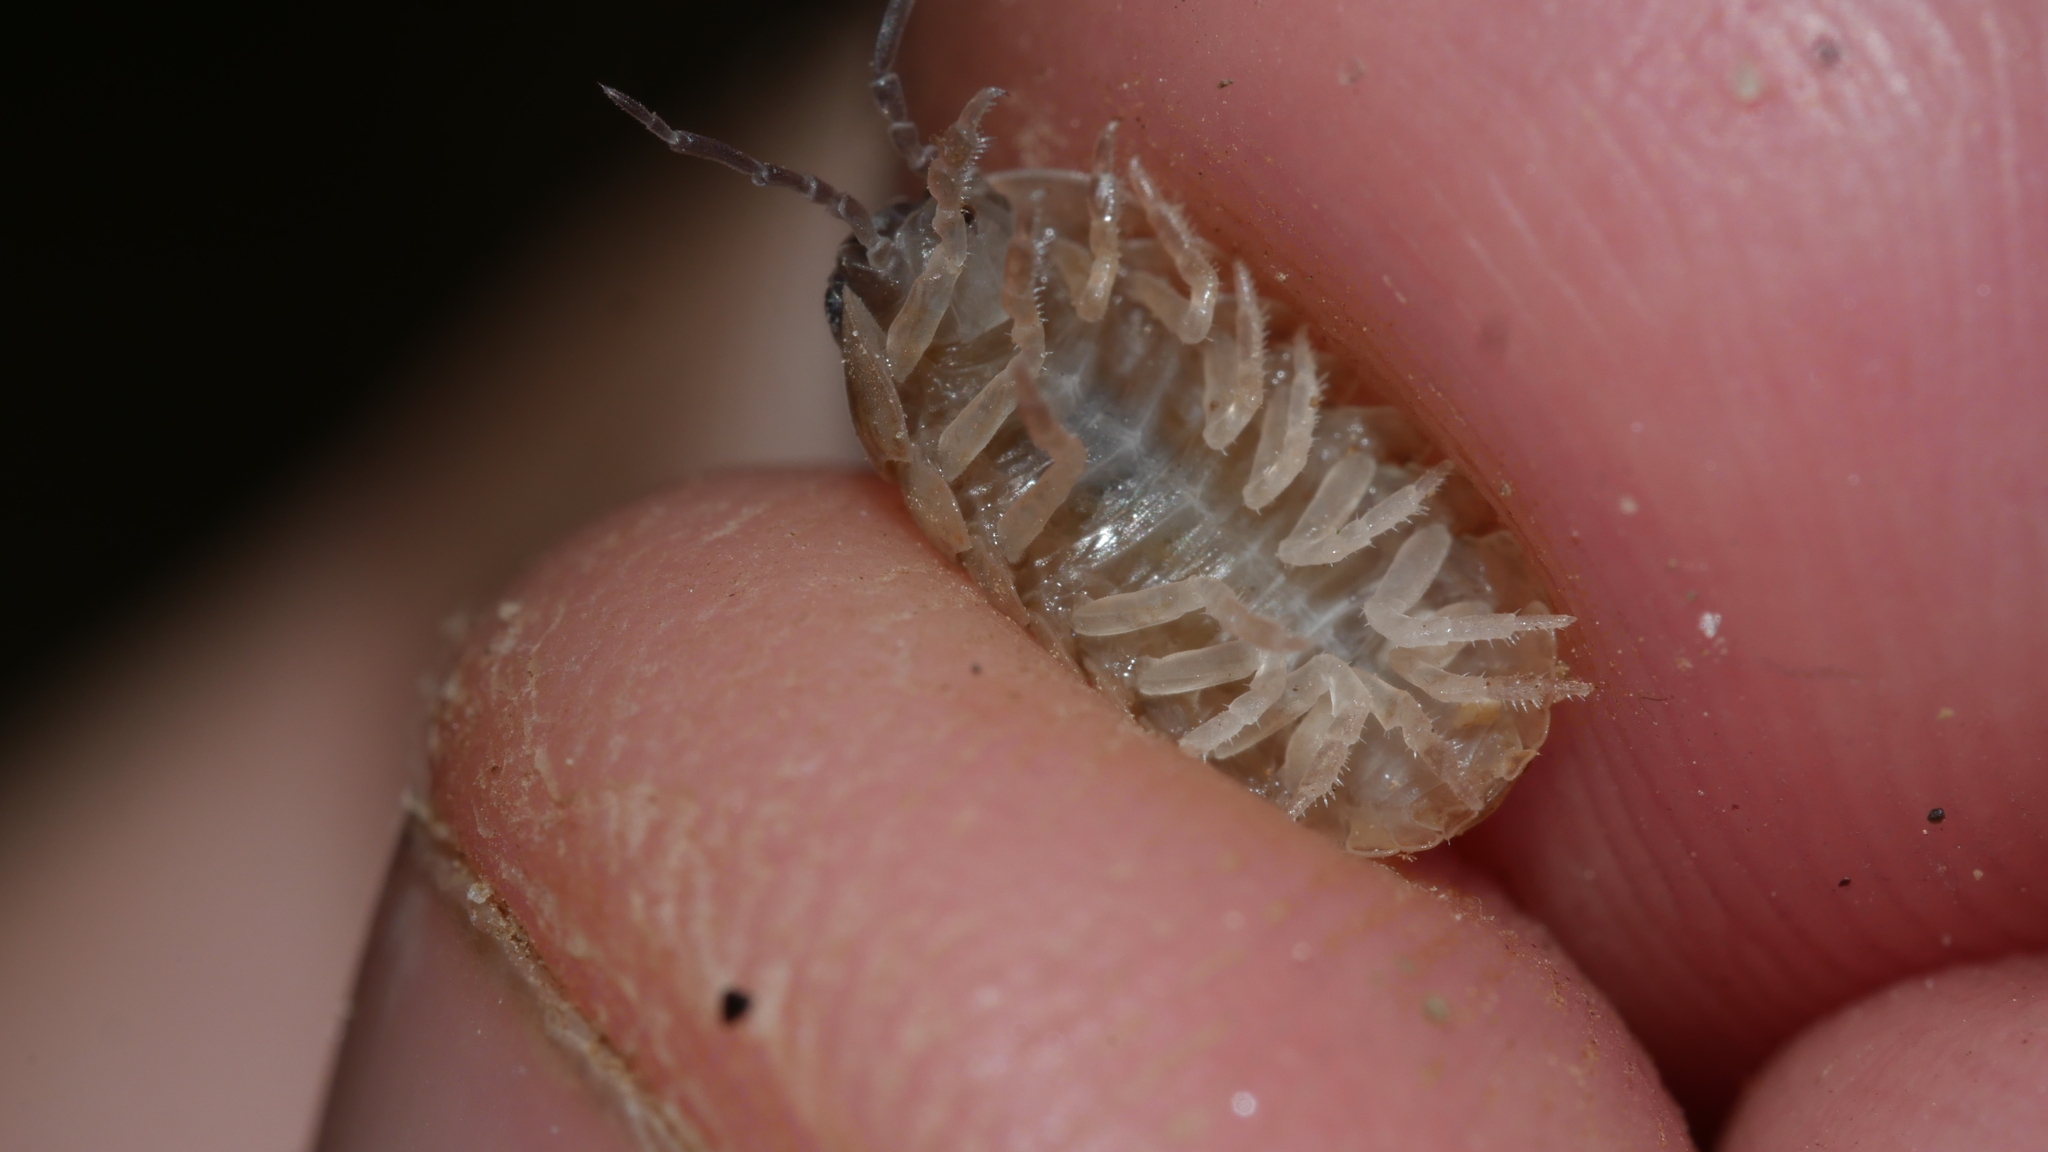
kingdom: Animalia
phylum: Arthropoda
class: Malacostraca
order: Isopoda
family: Armadillidiidae
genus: Armadillidium
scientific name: Armadillidium vulgare
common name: Common pill woodlouse
